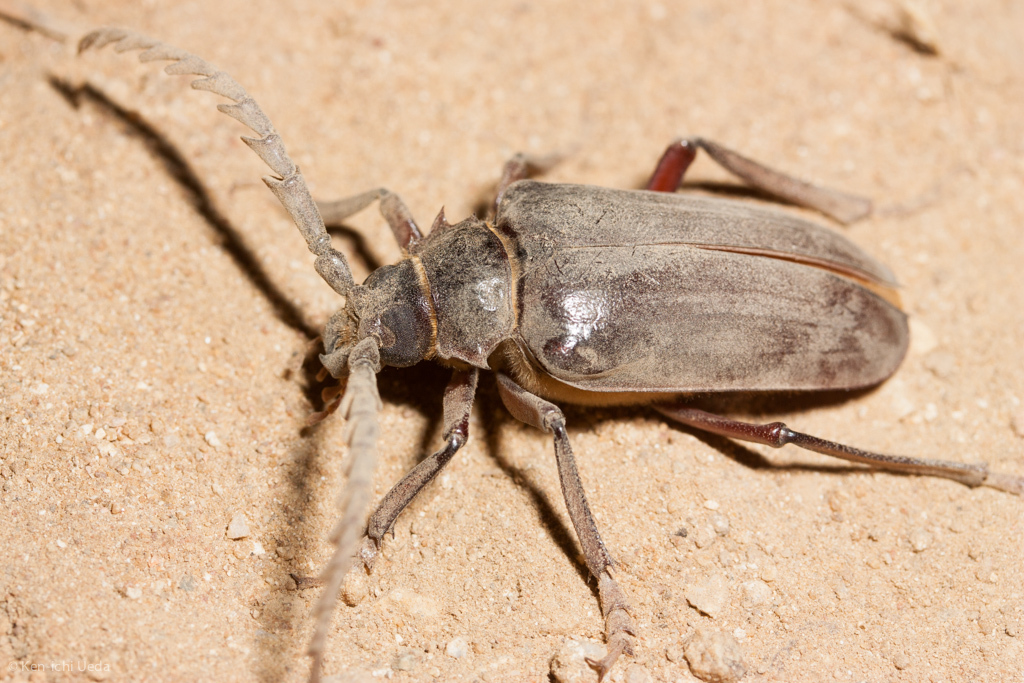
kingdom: Animalia
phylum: Arthropoda
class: Insecta
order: Coleoptera
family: Cerambycidae
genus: Prionus
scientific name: Prionus californicus
